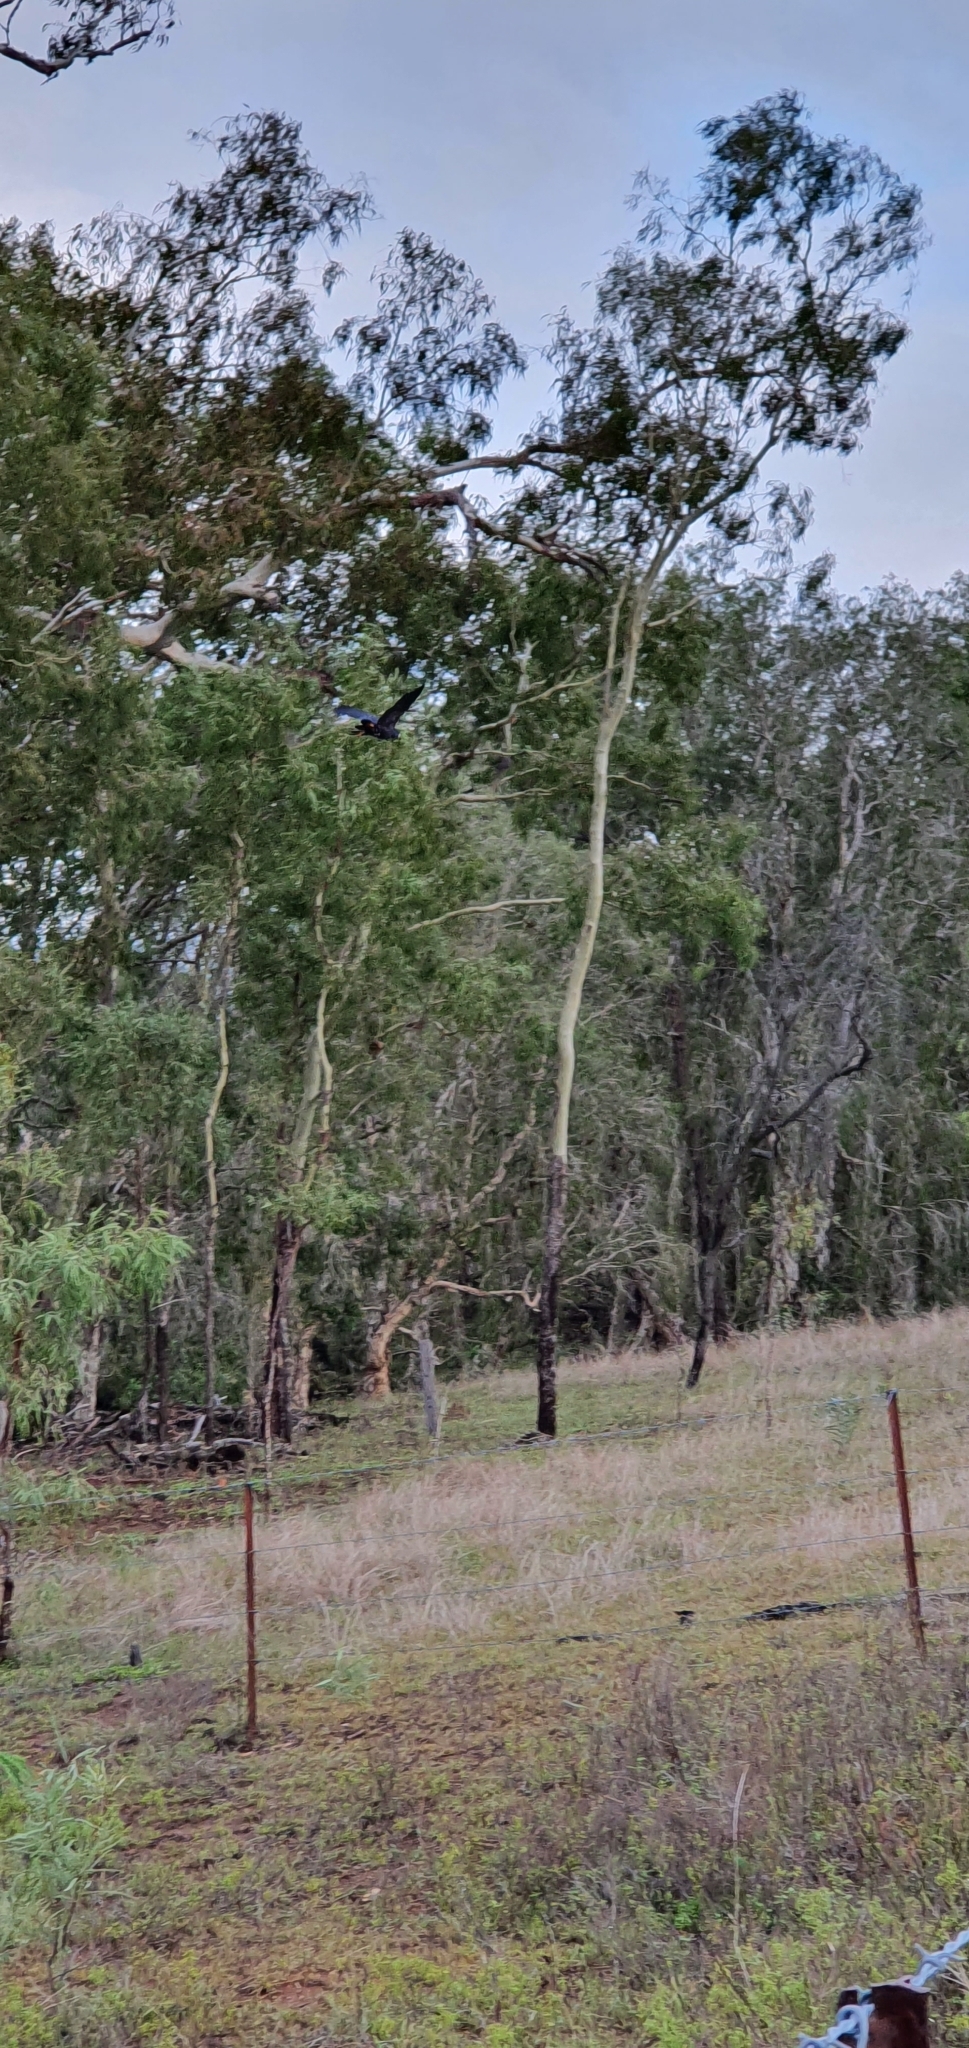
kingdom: Animalia
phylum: Chordata
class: Aves
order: Psittaciformes
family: Psittacidae
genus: Calyptorhynchus
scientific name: Calyptorhynchus banksii
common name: Red-tailed black cockatoo
